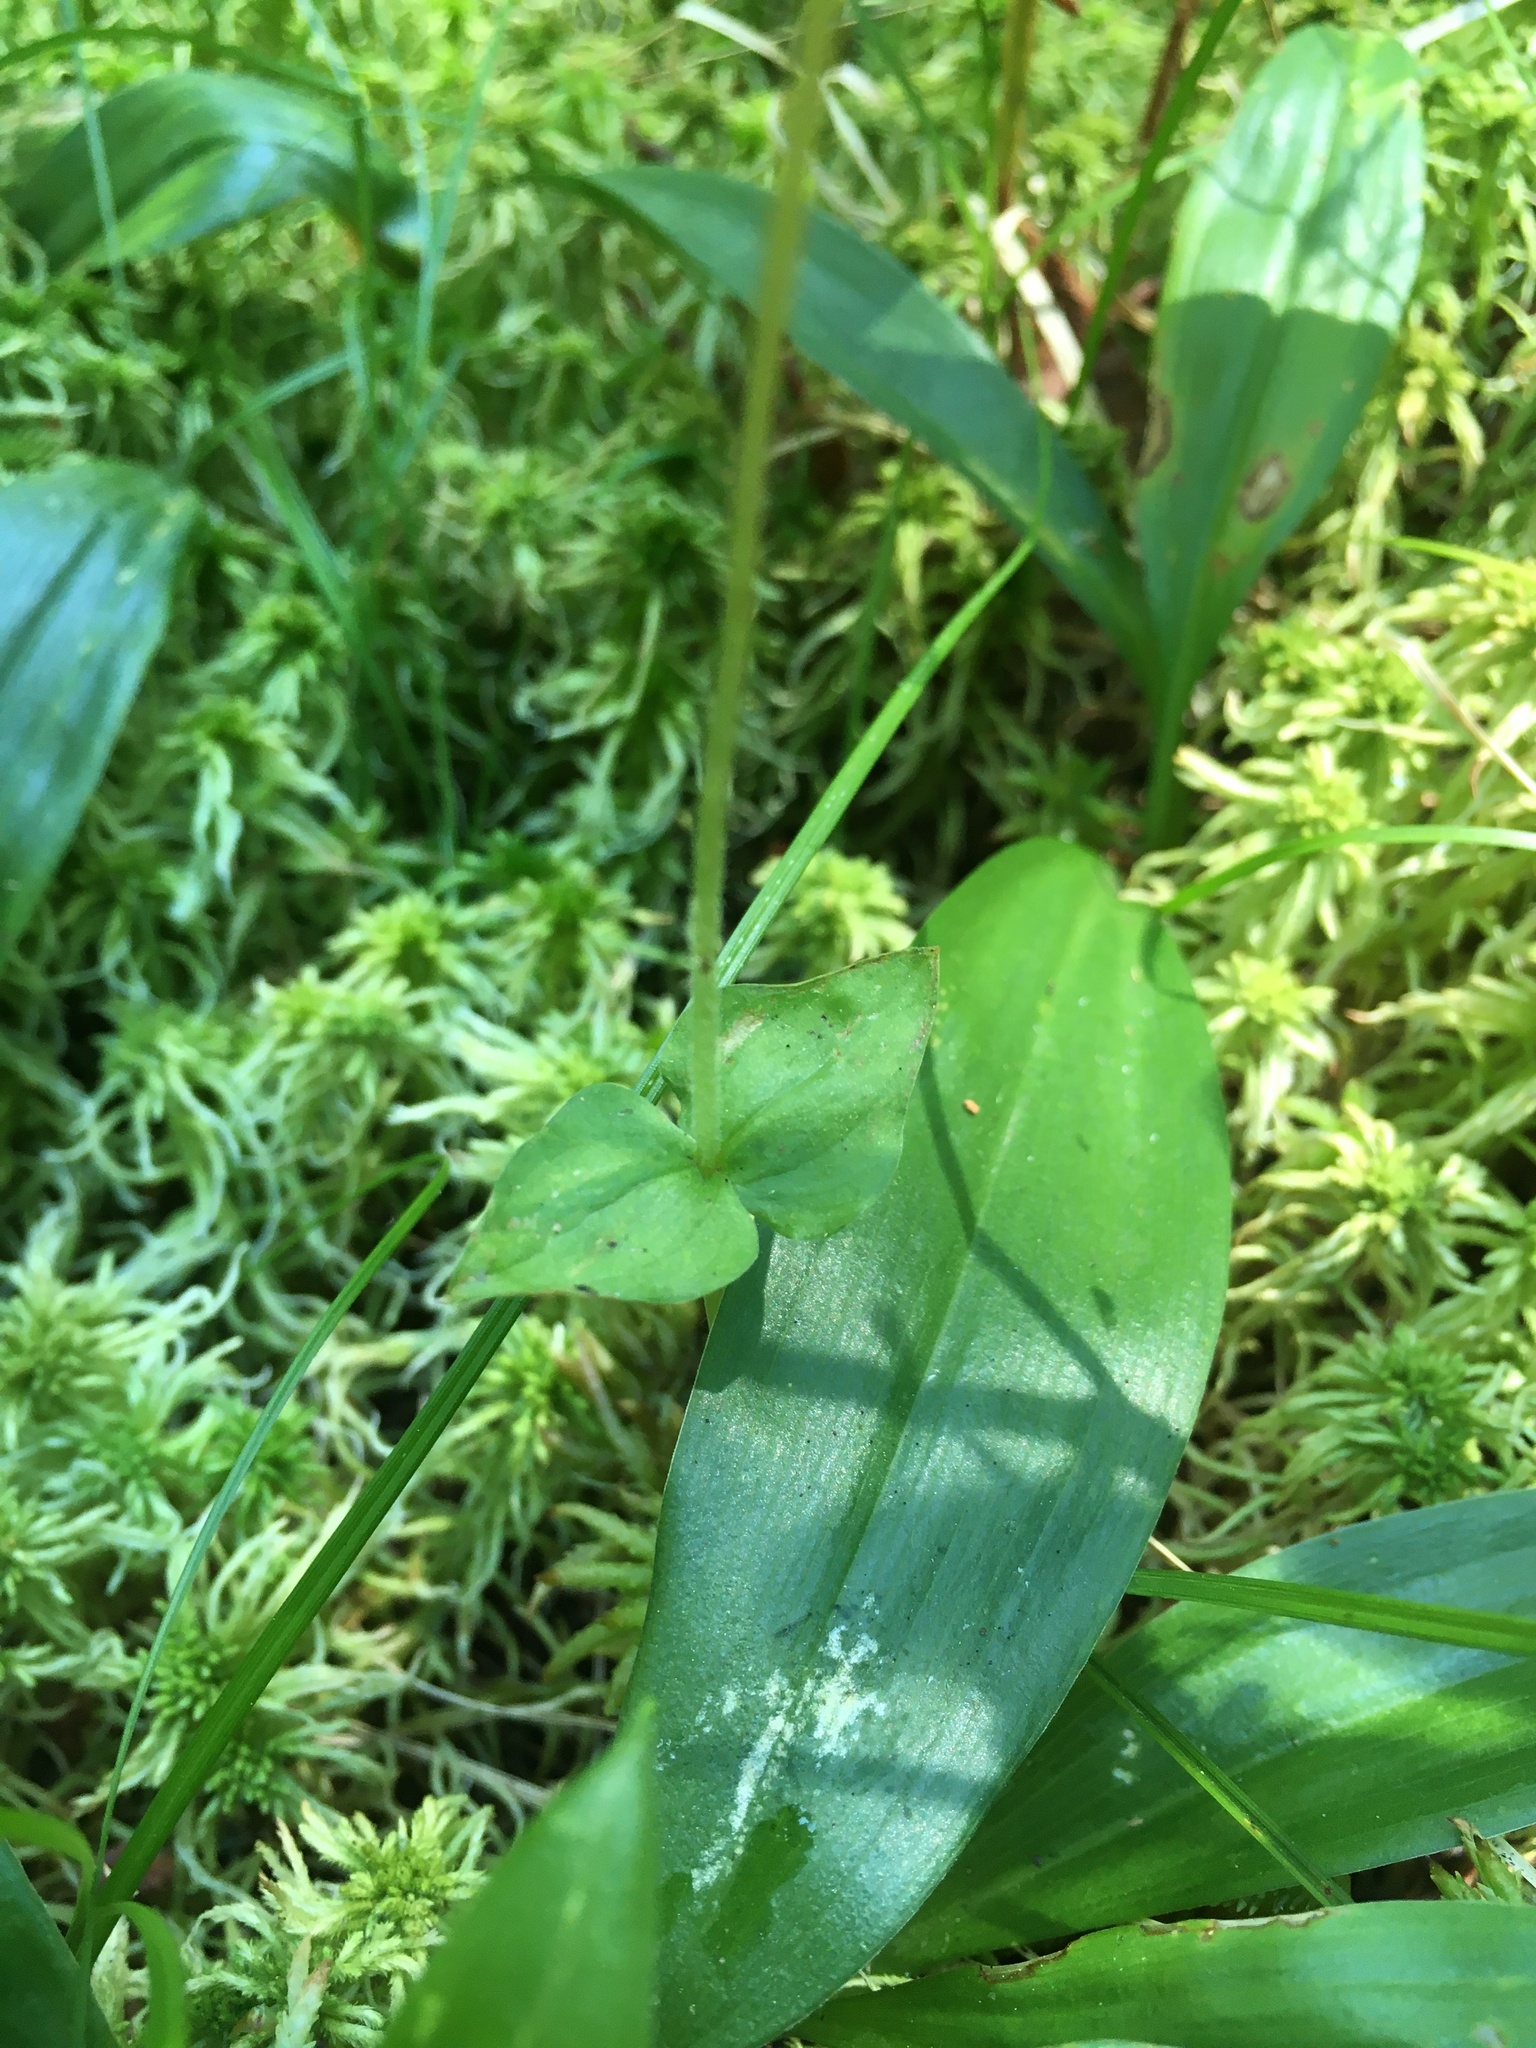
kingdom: Plantae
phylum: Tracheophyta
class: Liliopsida
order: Asparagales
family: Orchidaceae
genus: Neottia
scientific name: Neottia cordata
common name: Lesser twayblade
